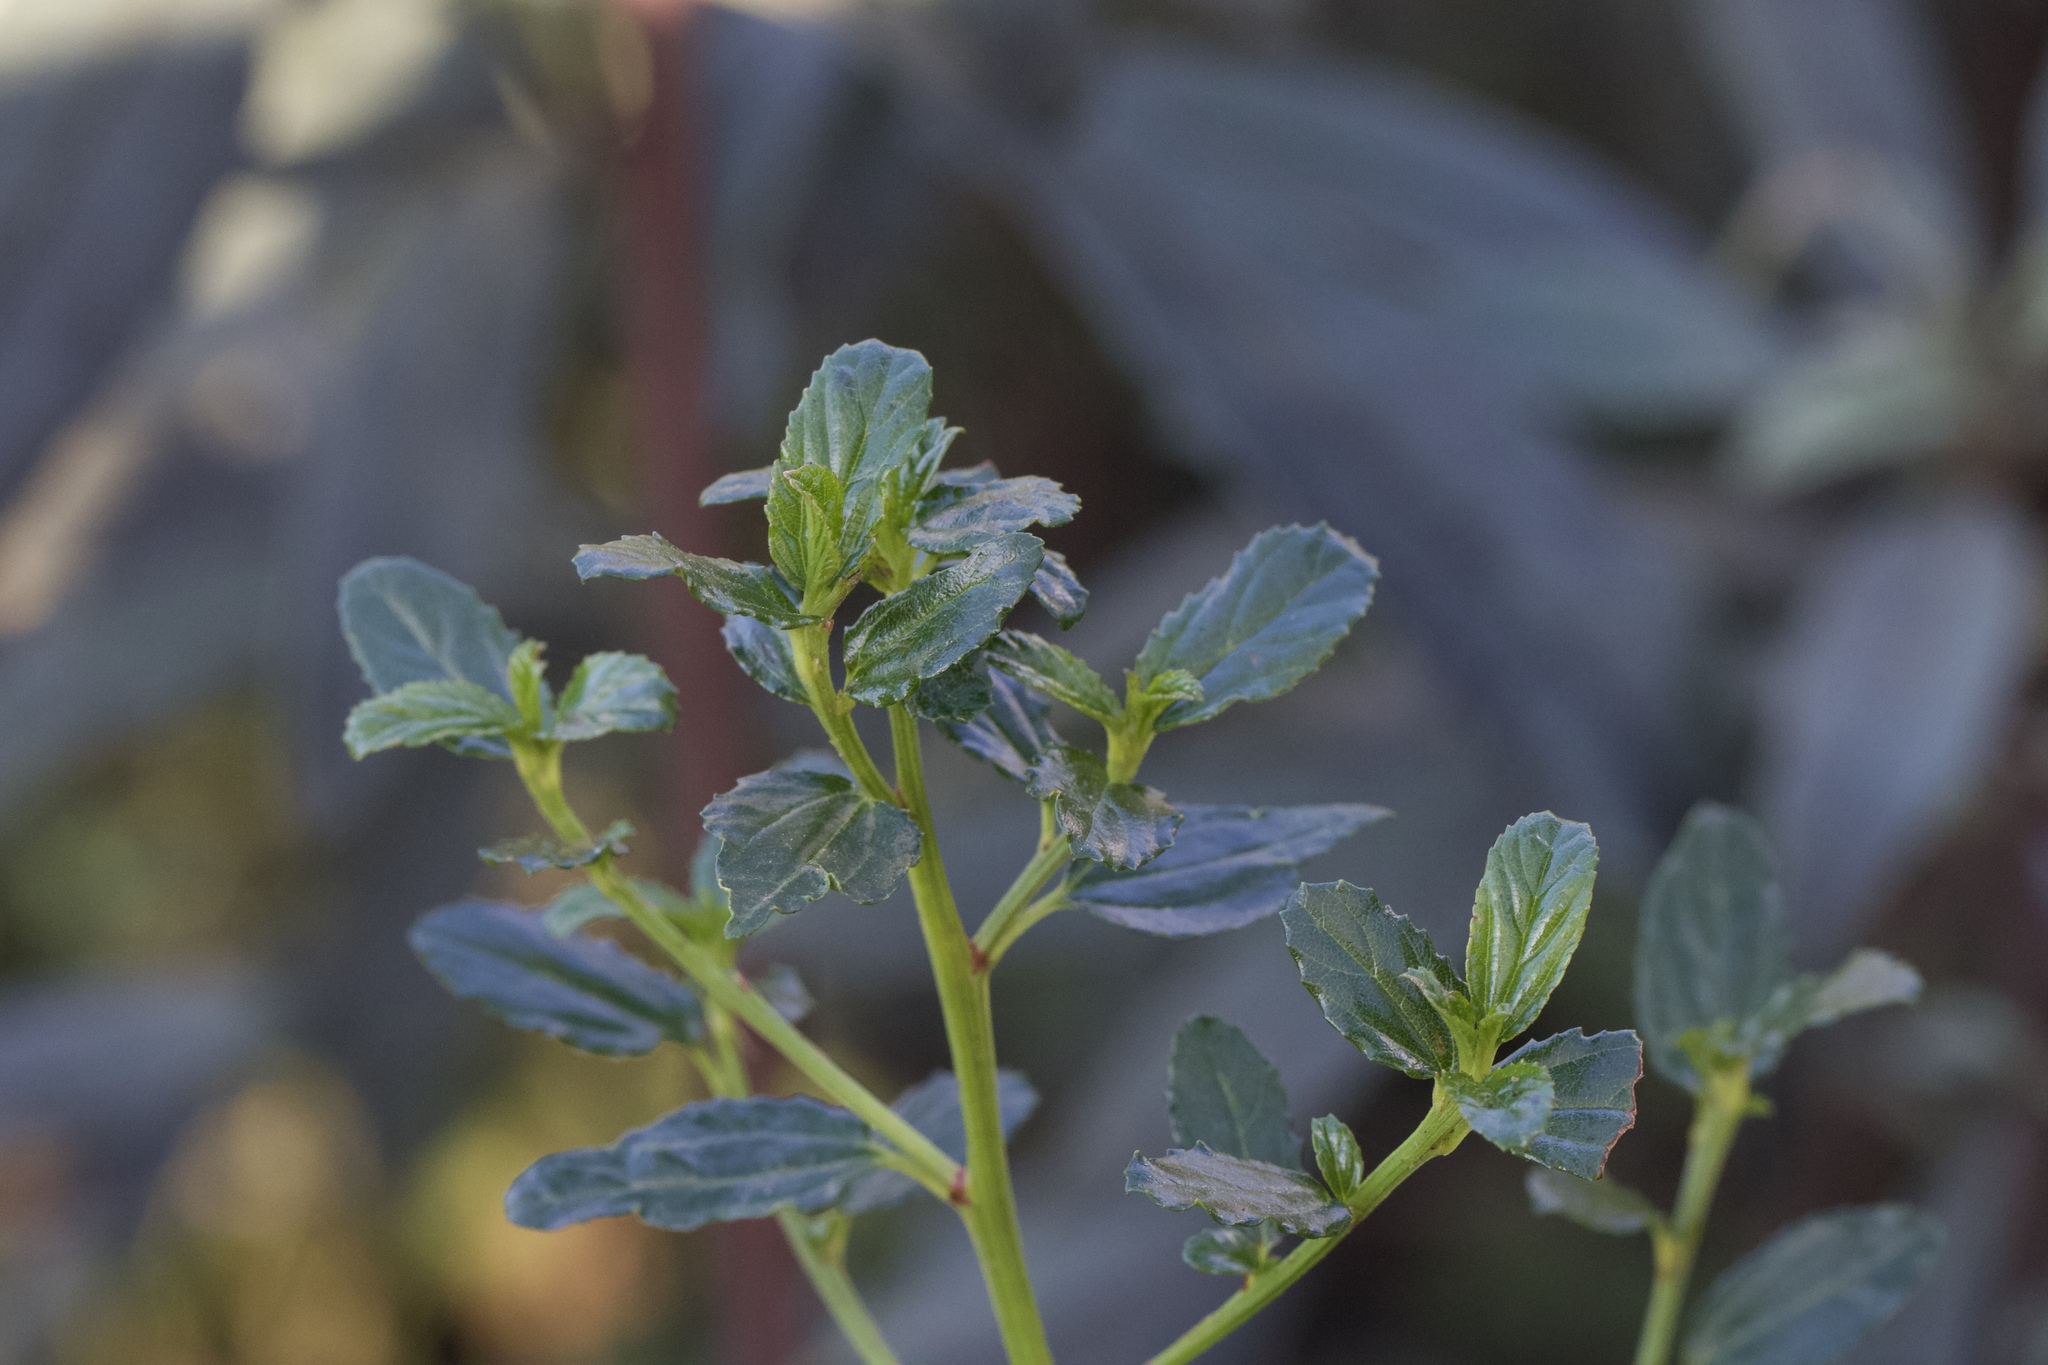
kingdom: Plantae
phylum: Tracheophyta
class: Magnoliopsida
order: Rosales
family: Rhamnaceae
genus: Ceanothus
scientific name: Ceanothus thyrsiflorus
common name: California-lilac
